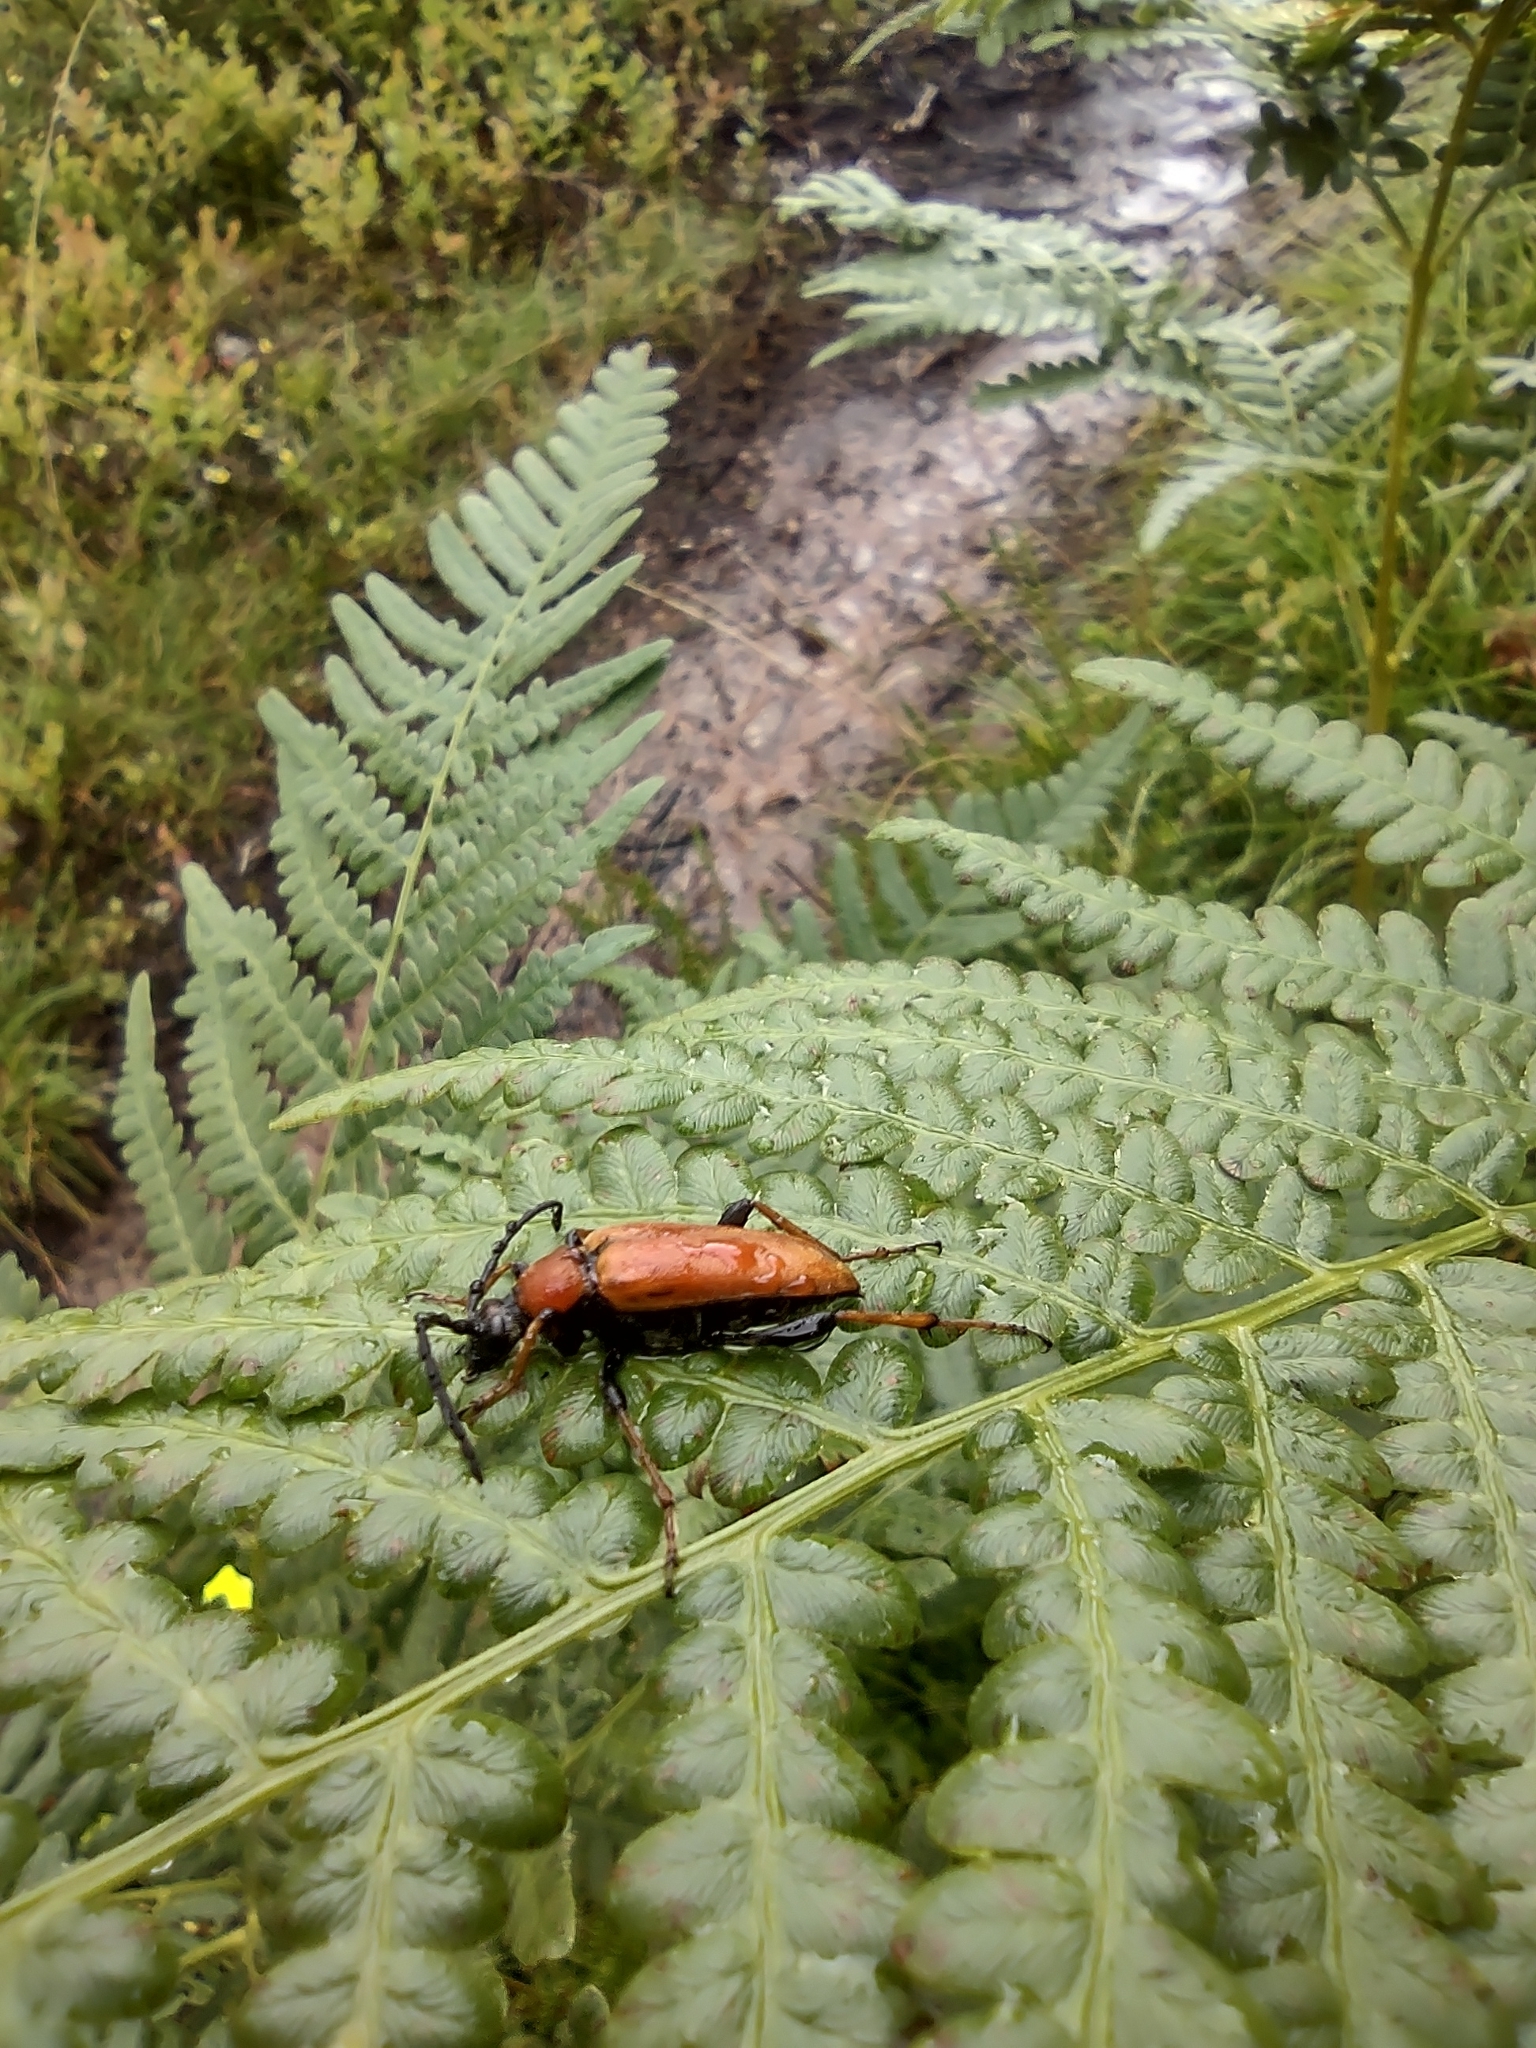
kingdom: Animalia
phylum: Arthropoda
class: Insecta
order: Coleoptera
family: Cerambycidae
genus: Stictoleptura
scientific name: Stictoleptura rubra
